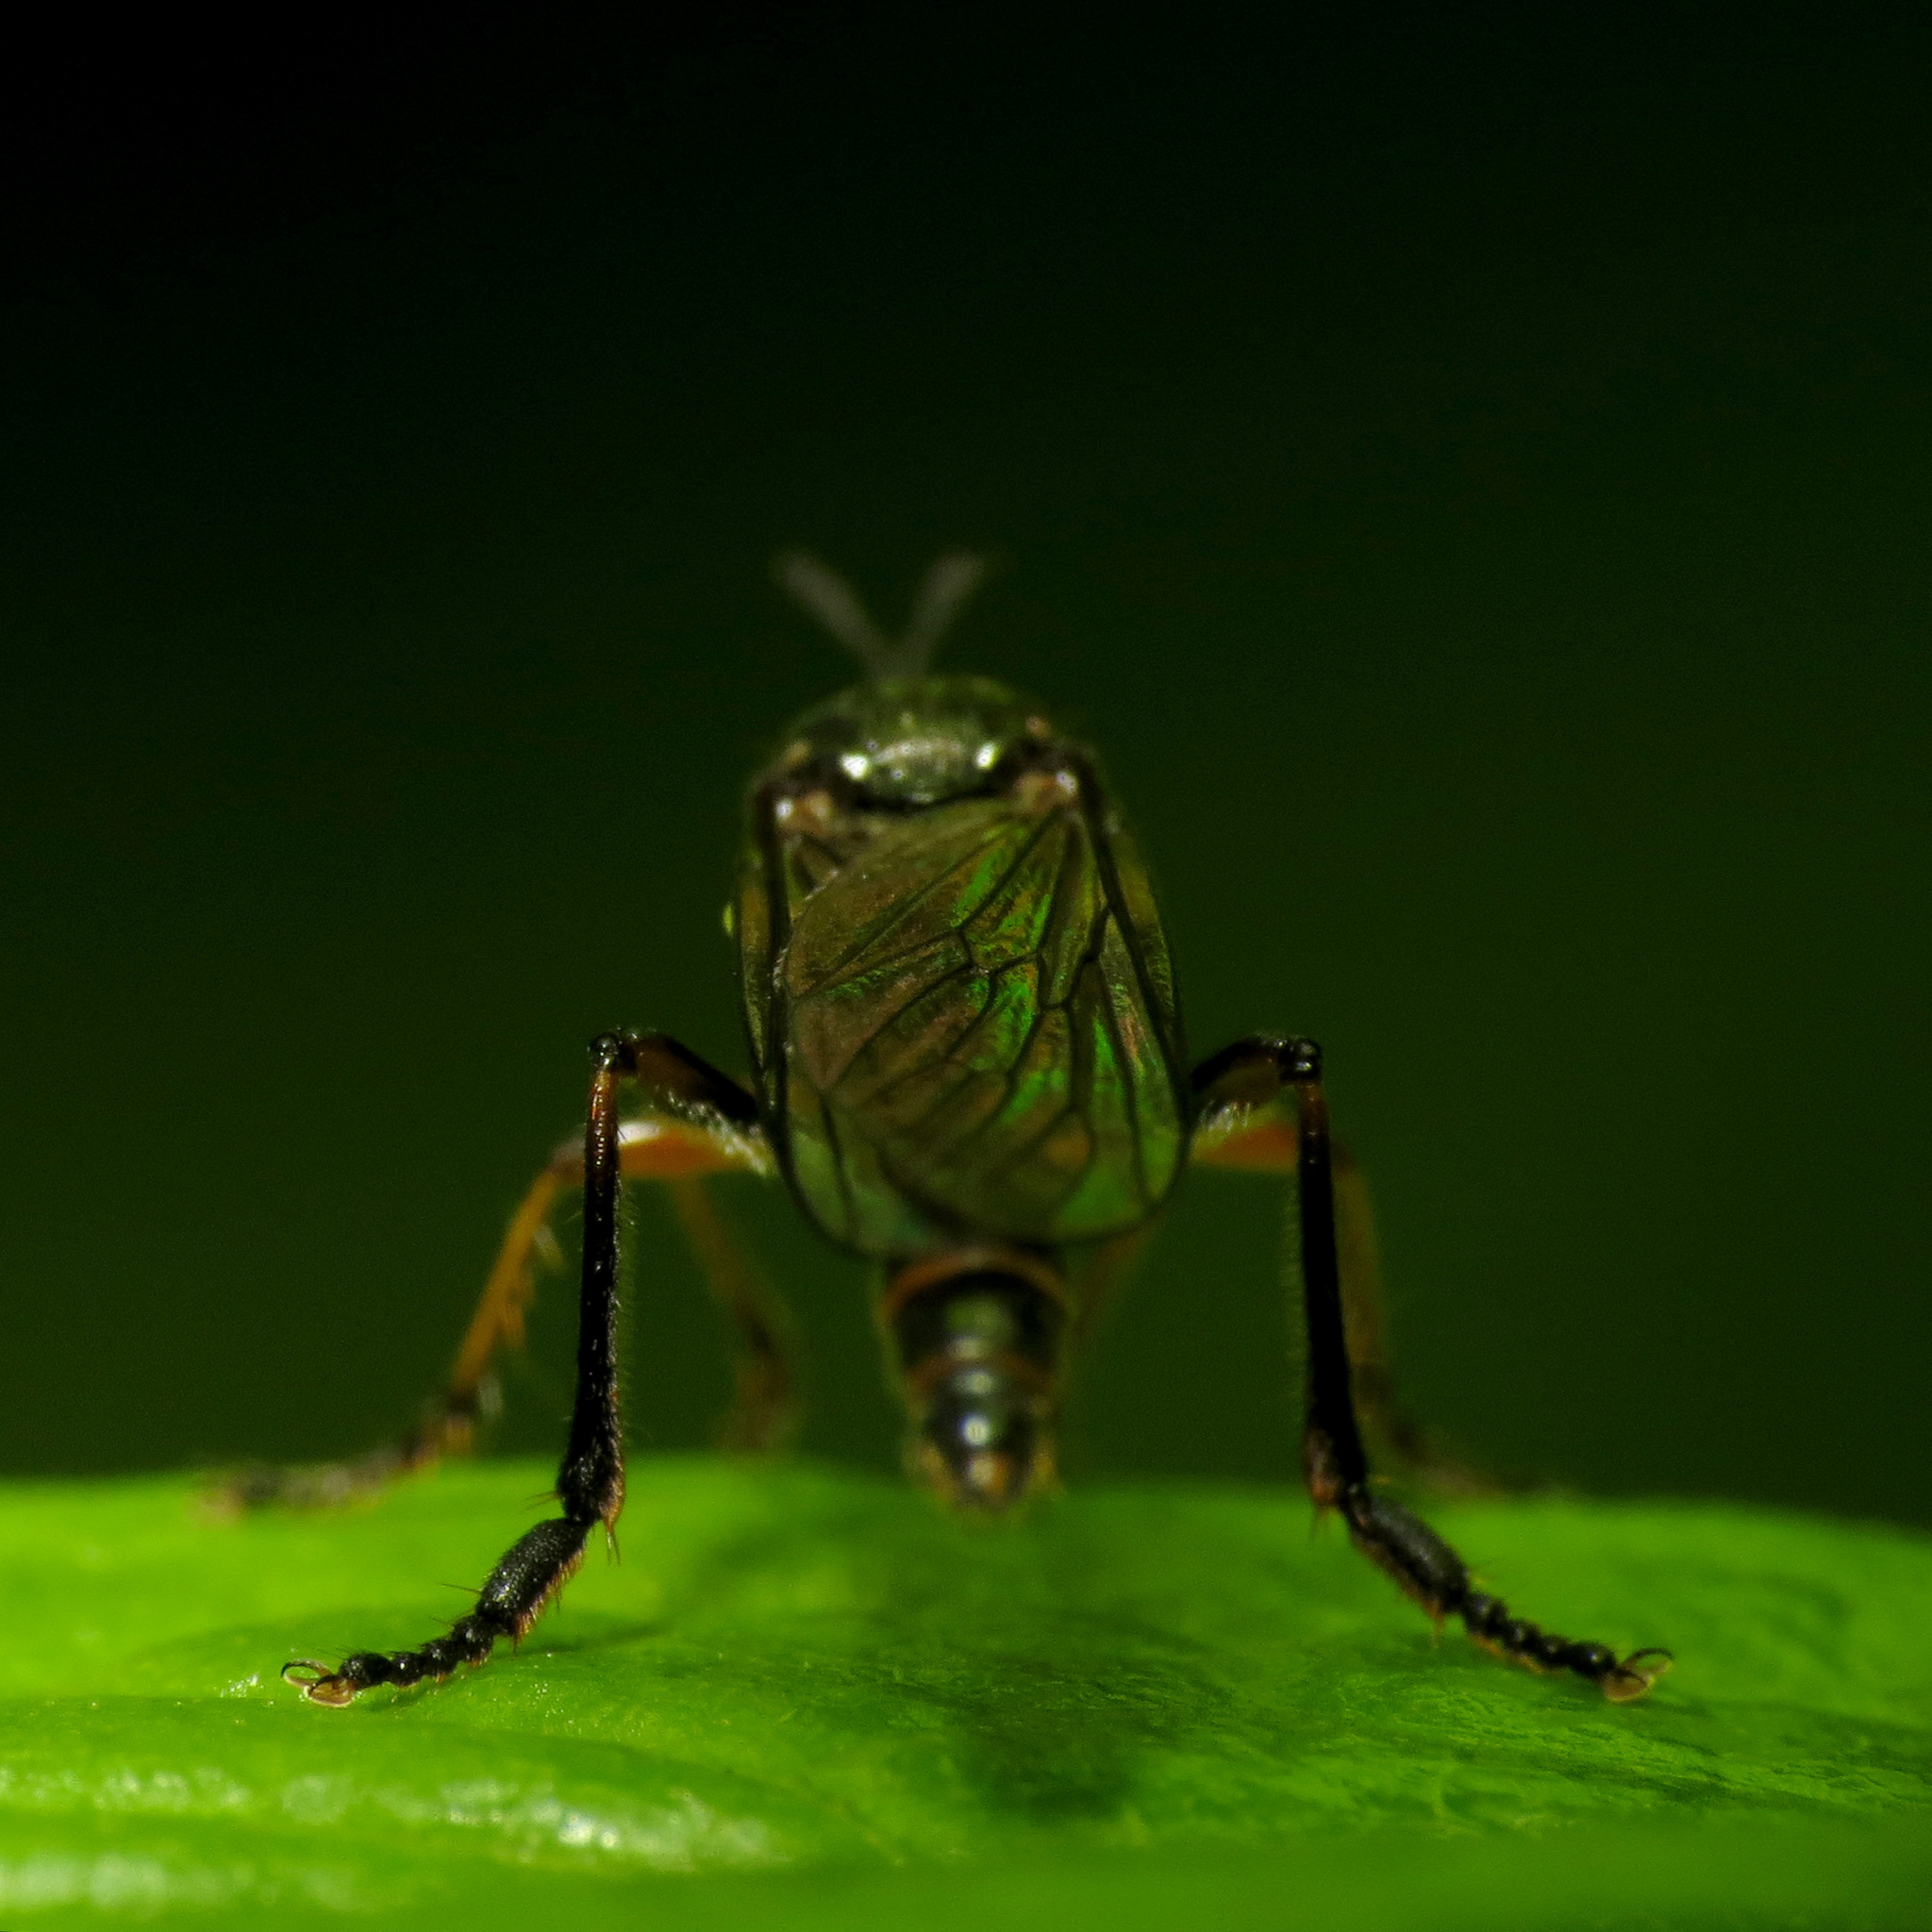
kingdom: Animalia
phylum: Arthropoda
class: Insecta
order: Diptera
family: Asilidae
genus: Dioctria
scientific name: Dioctria hyalipennis
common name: Stripe-legged robberfly
